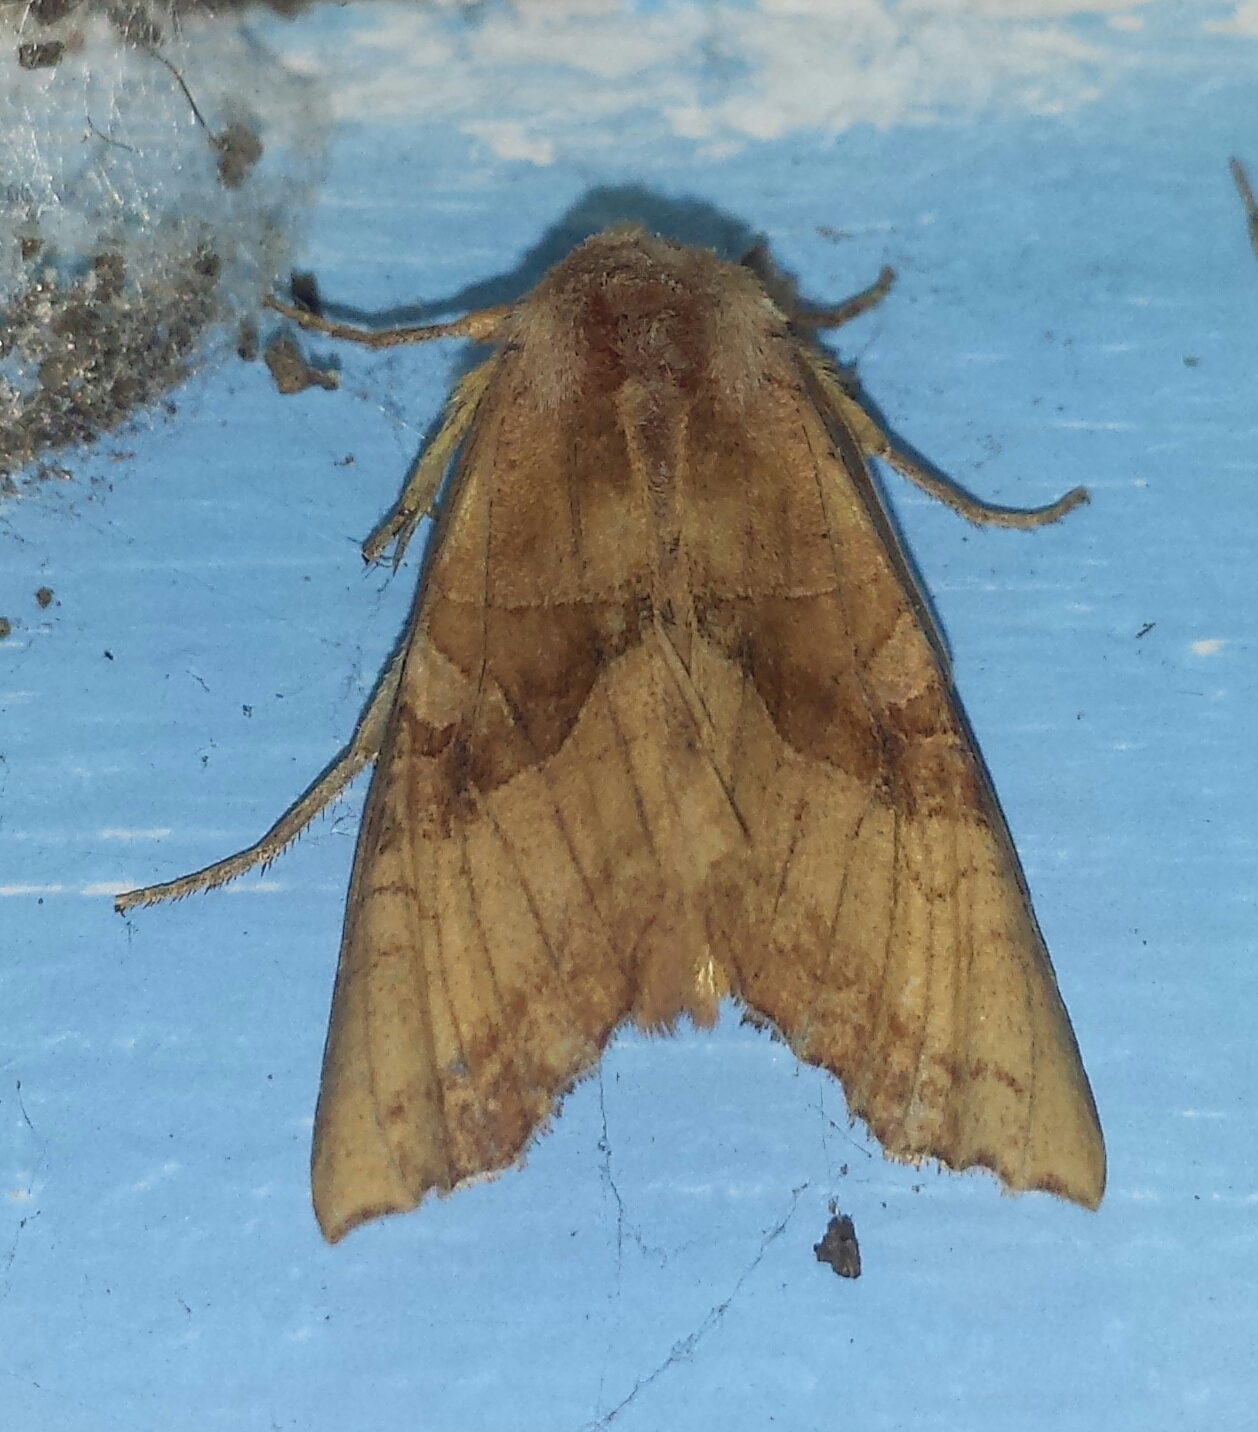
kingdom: Animalia
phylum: Arthropoda
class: Insecta
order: Lepidoptera
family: Noctuidae
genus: Phlogophora
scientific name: Phlogophora periculosa
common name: Brown angle shades
